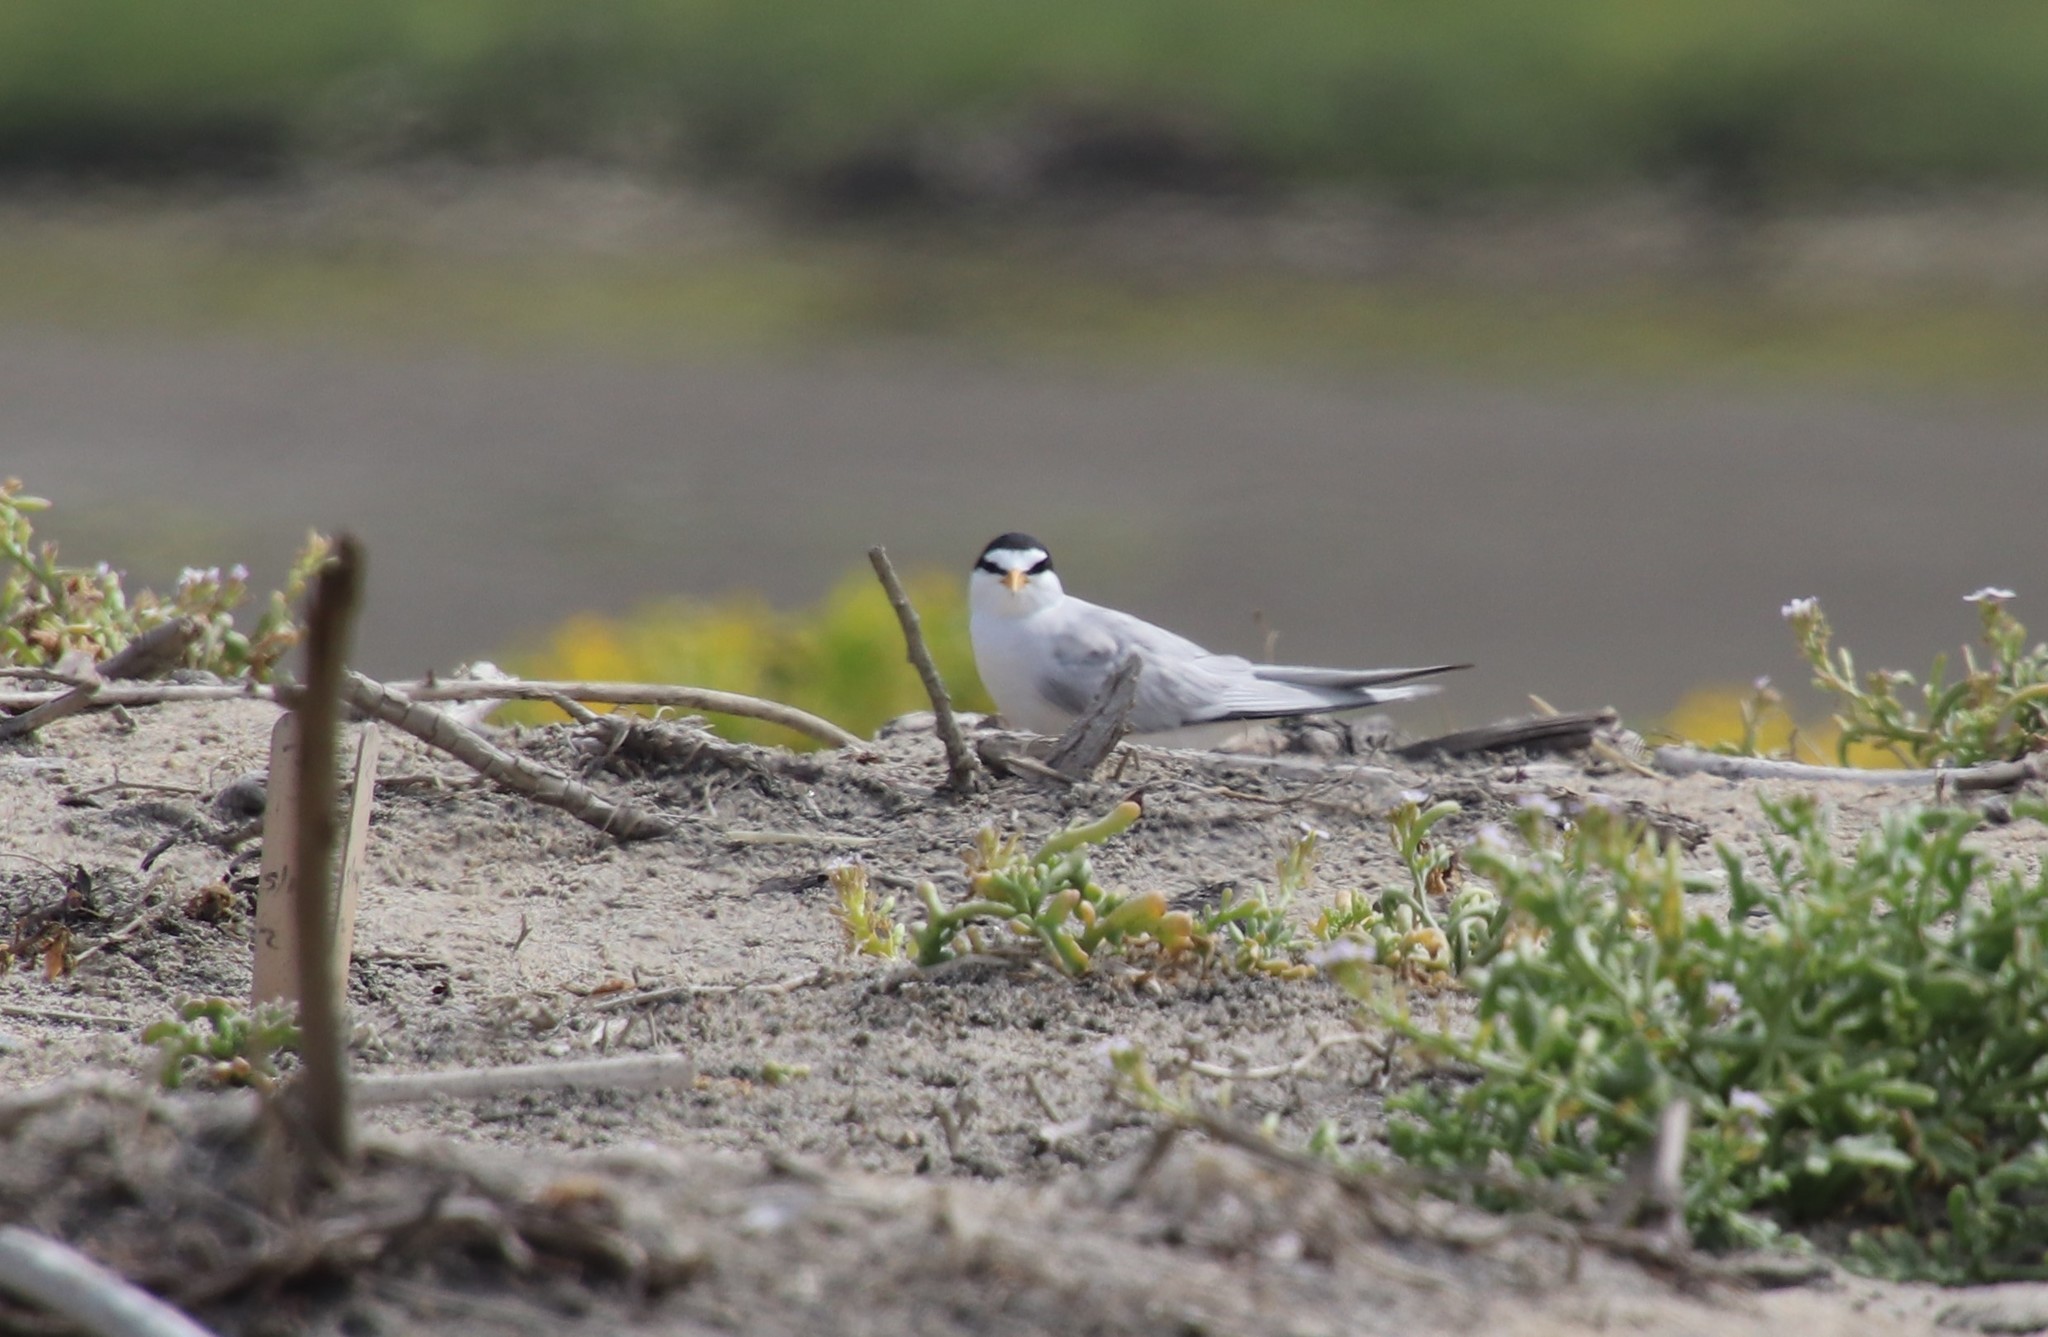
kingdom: Animalia
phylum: Chordata
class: Aves
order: Charadriiformes
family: Laridae
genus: Sternula
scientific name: Sternula antillarum
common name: Least tern
